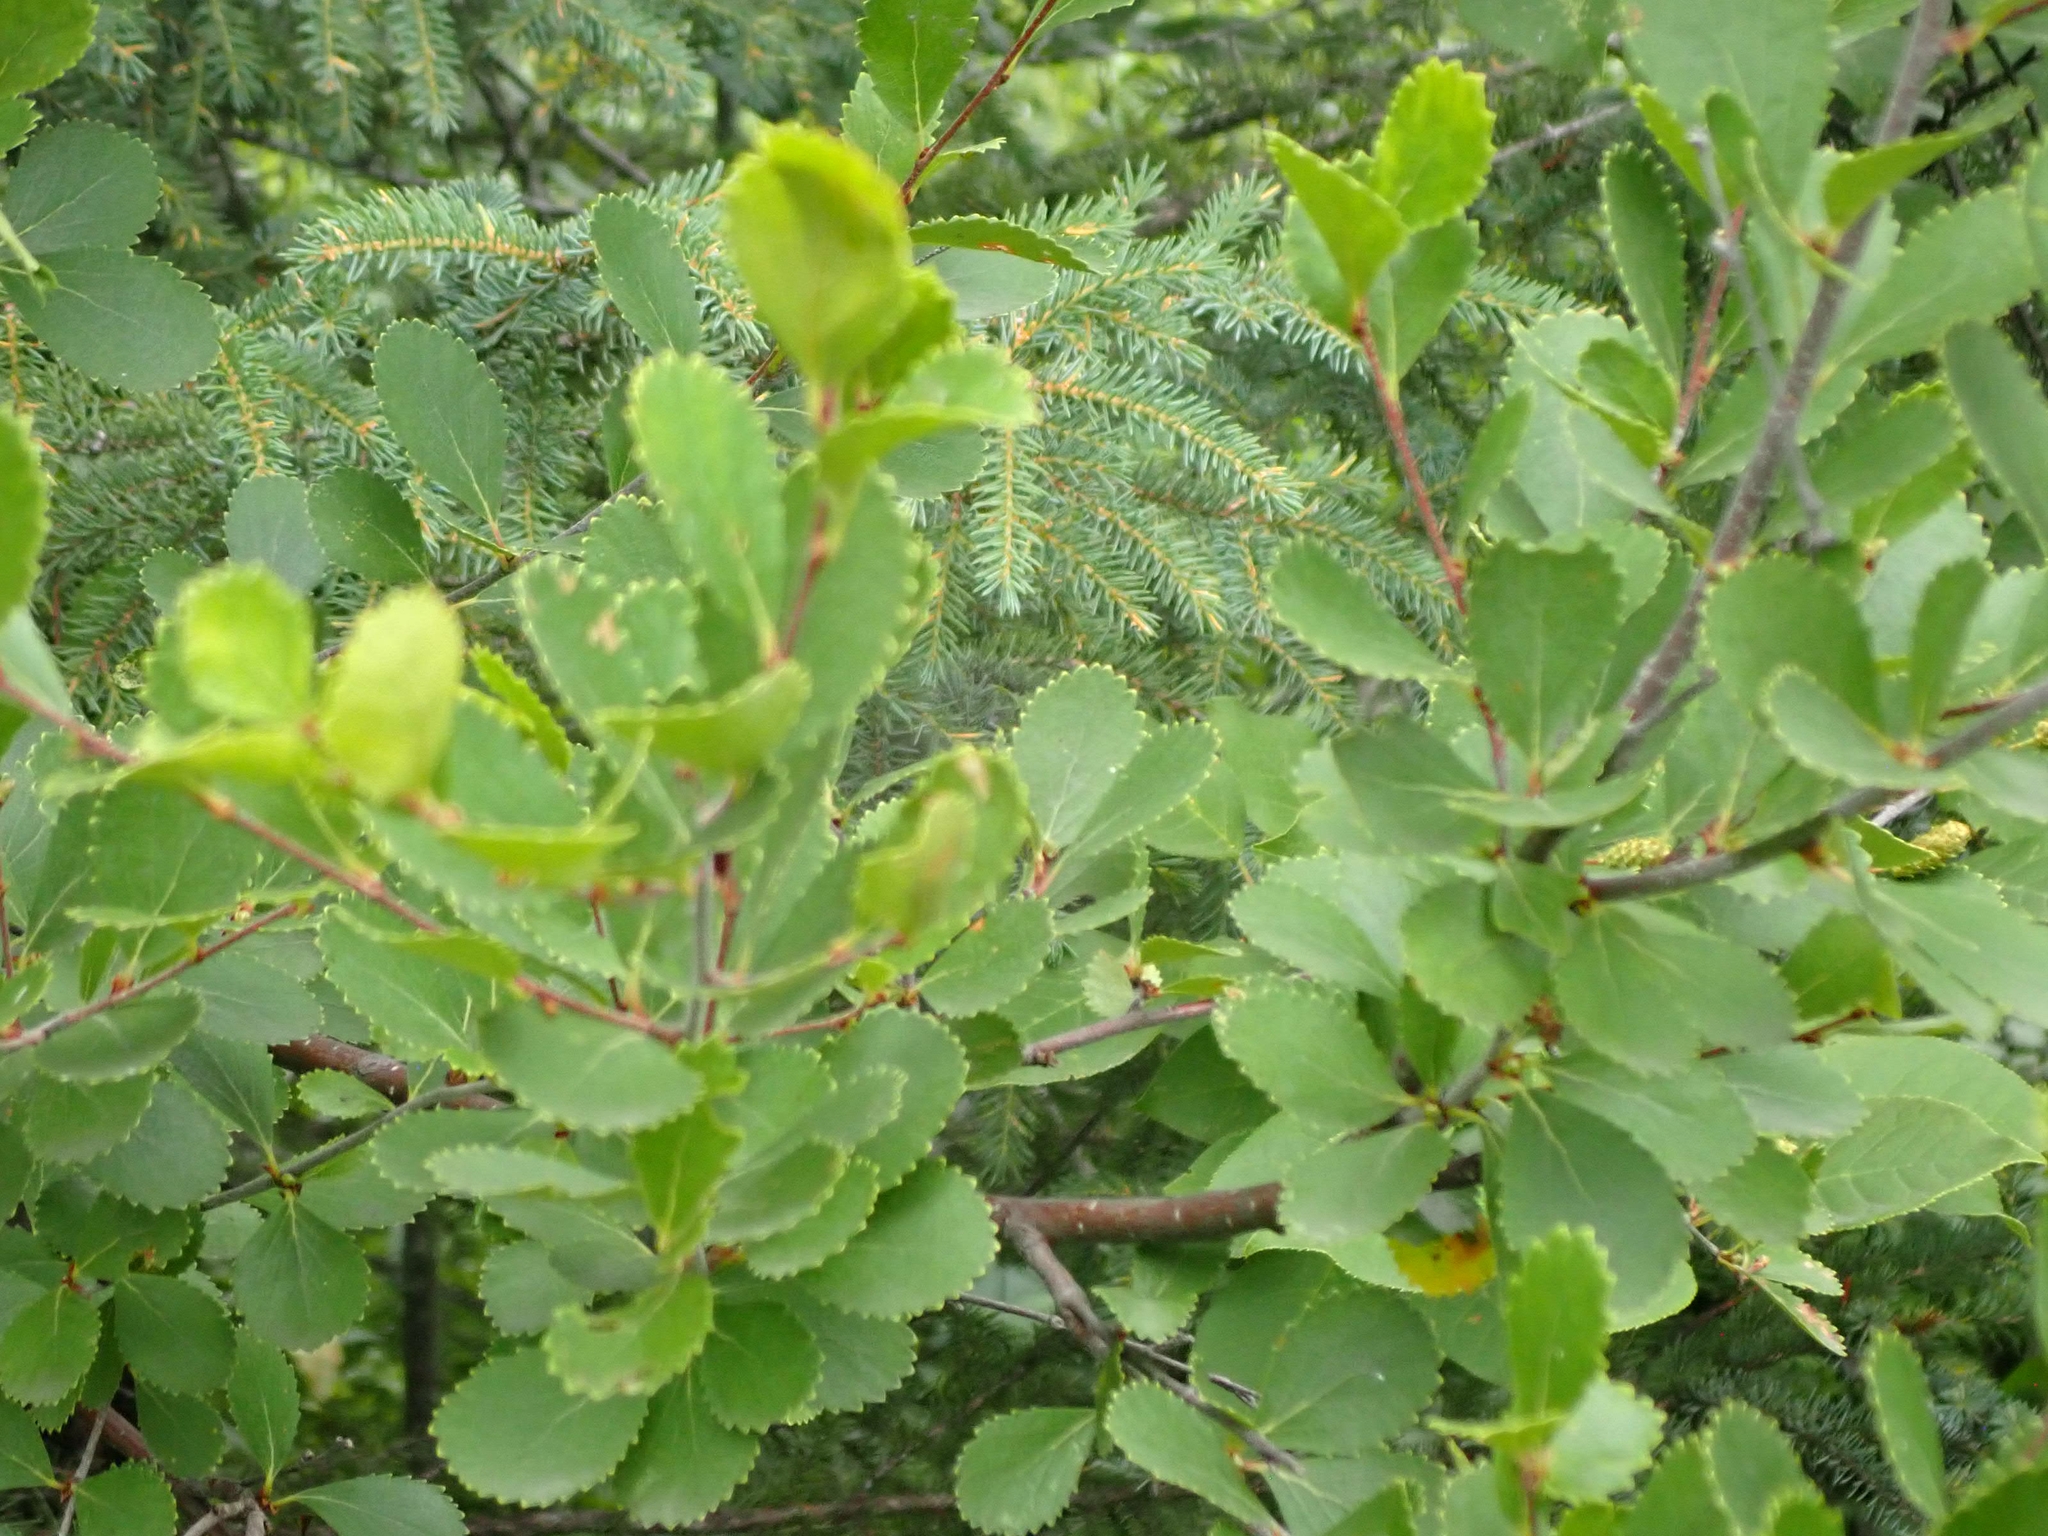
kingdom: Plantae
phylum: Tracheophyta
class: Magnoliopsida
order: Fagales
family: Betulaceae
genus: Betula
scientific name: Betula pumila
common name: Bog birch
